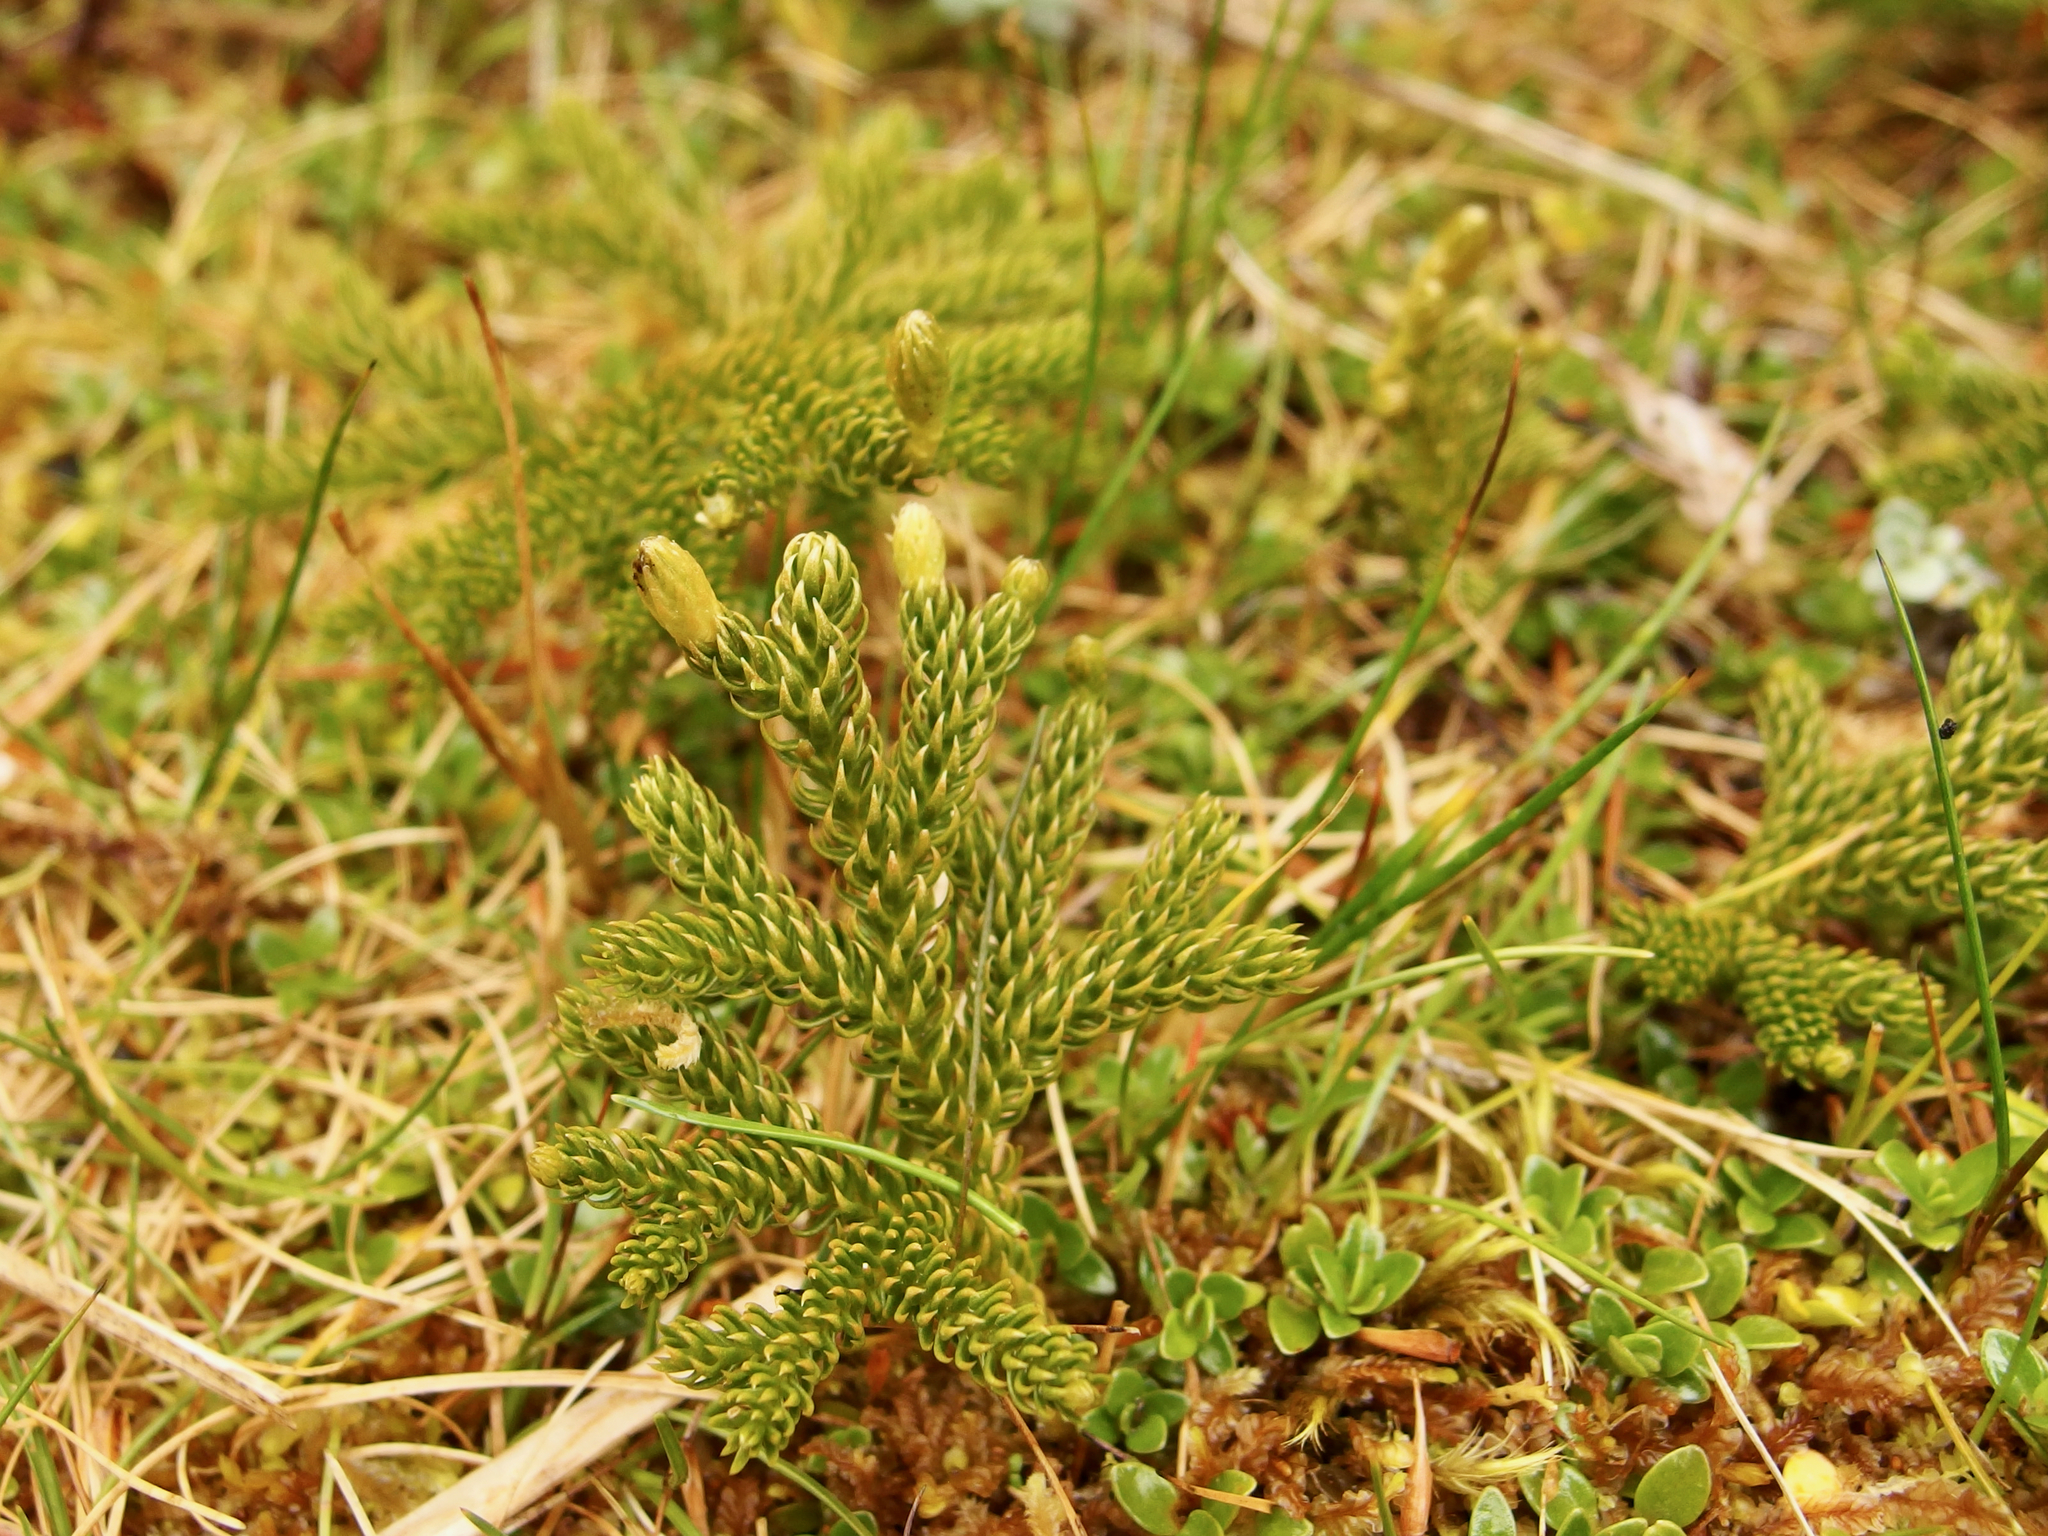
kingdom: Plantae
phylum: Tracheophyta
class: Lycopodiopsida
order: Lycopodiales
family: Lycopodiaceae
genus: Austrolycopodium
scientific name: Austrolycopodium fastigiatum
